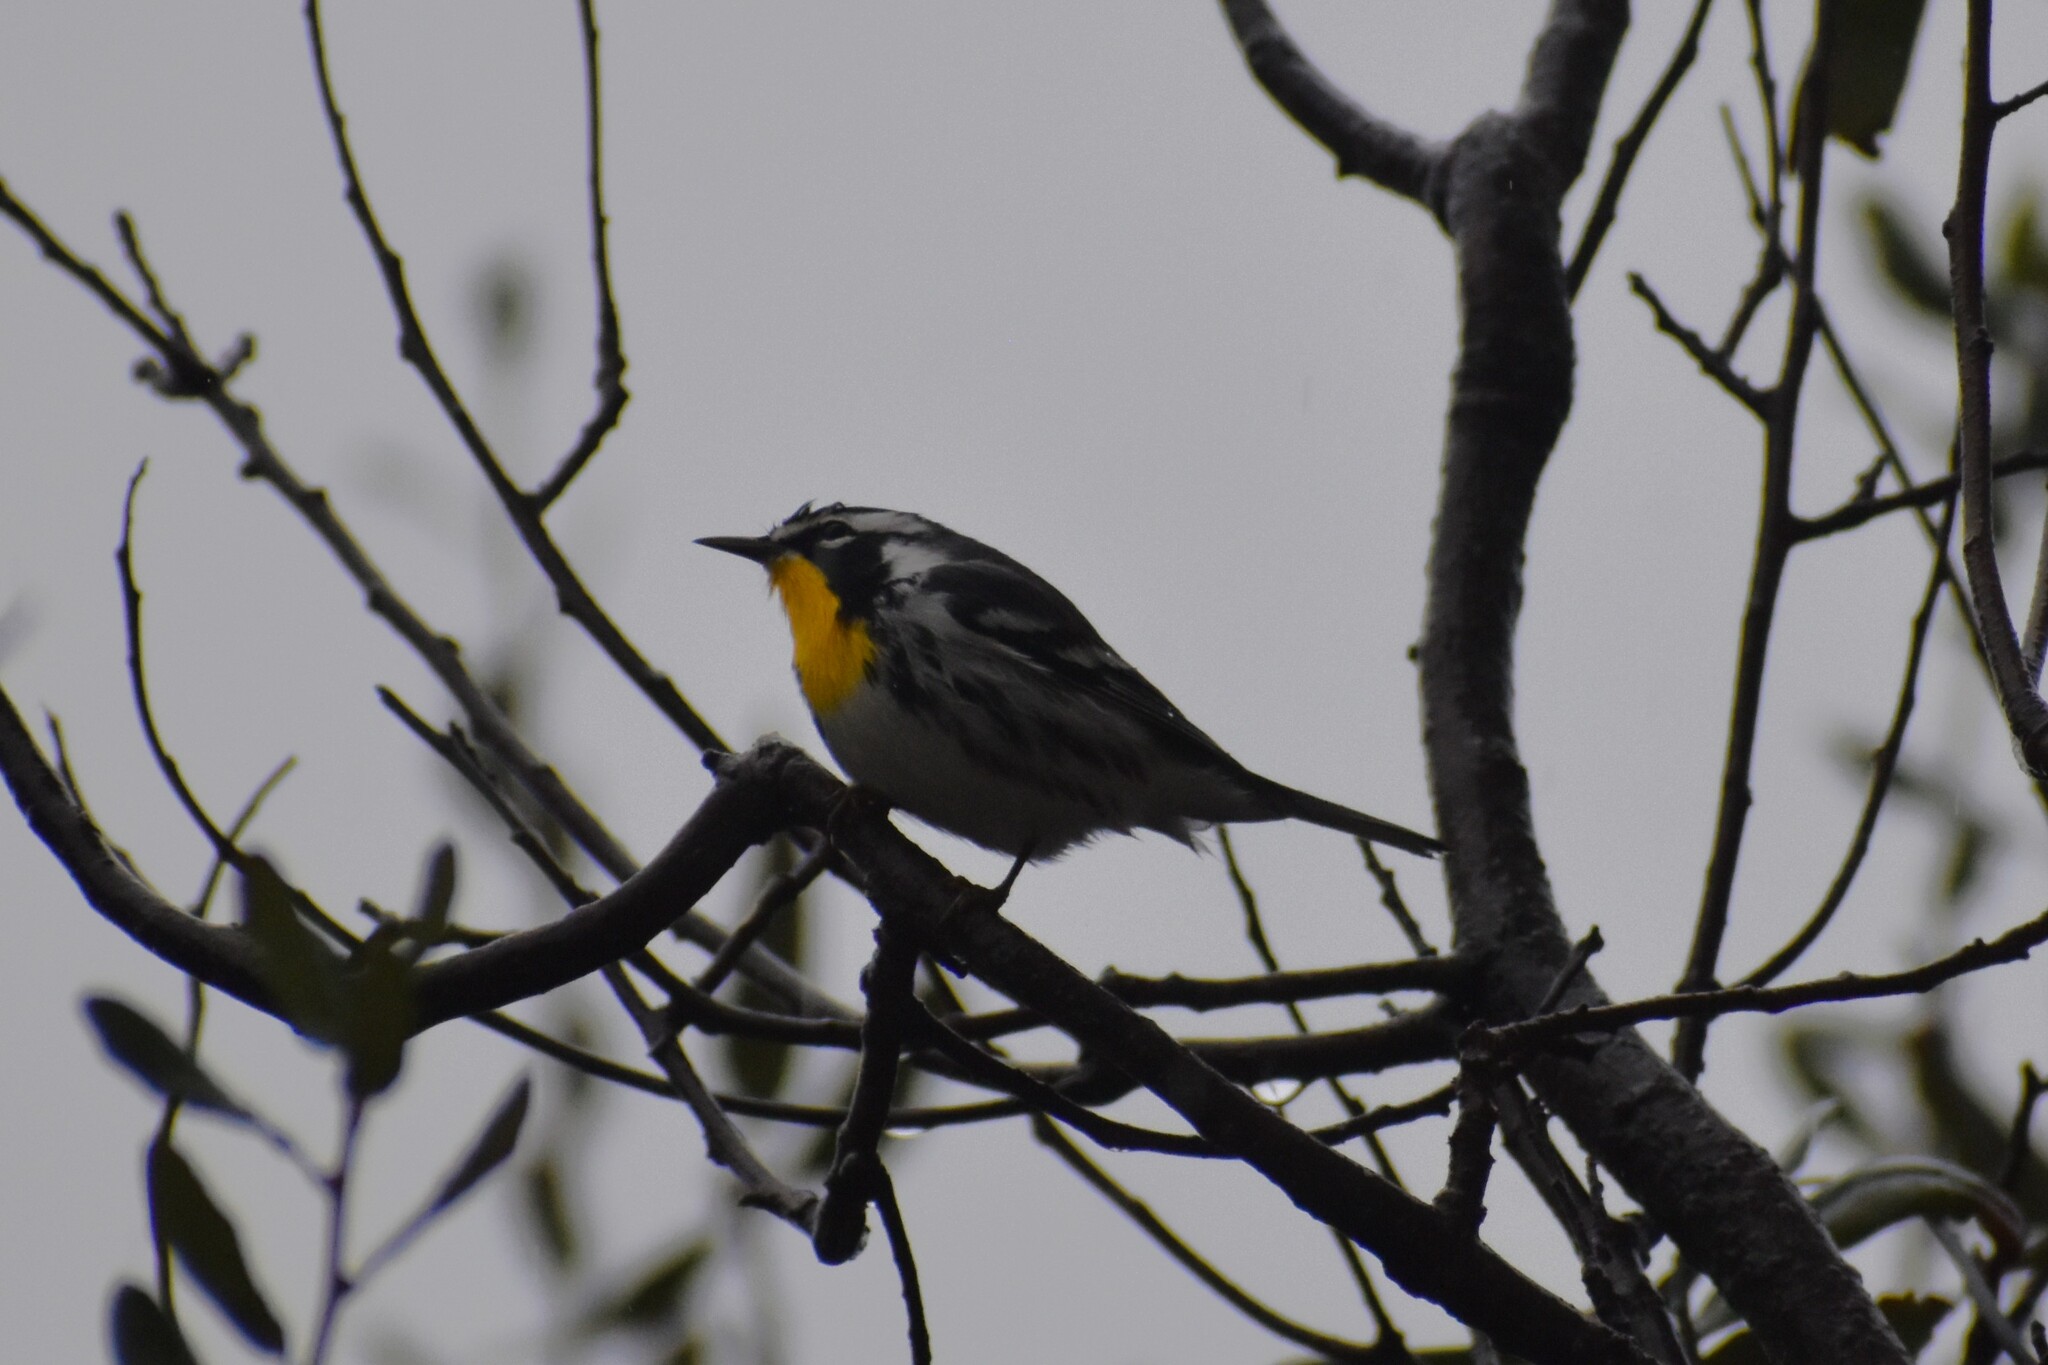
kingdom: Animalia
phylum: Chordata
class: Aves
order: Passeriformes
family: Parulidae
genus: Setophaga
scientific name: Setophaga dominica
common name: Yellow-throated warbler
